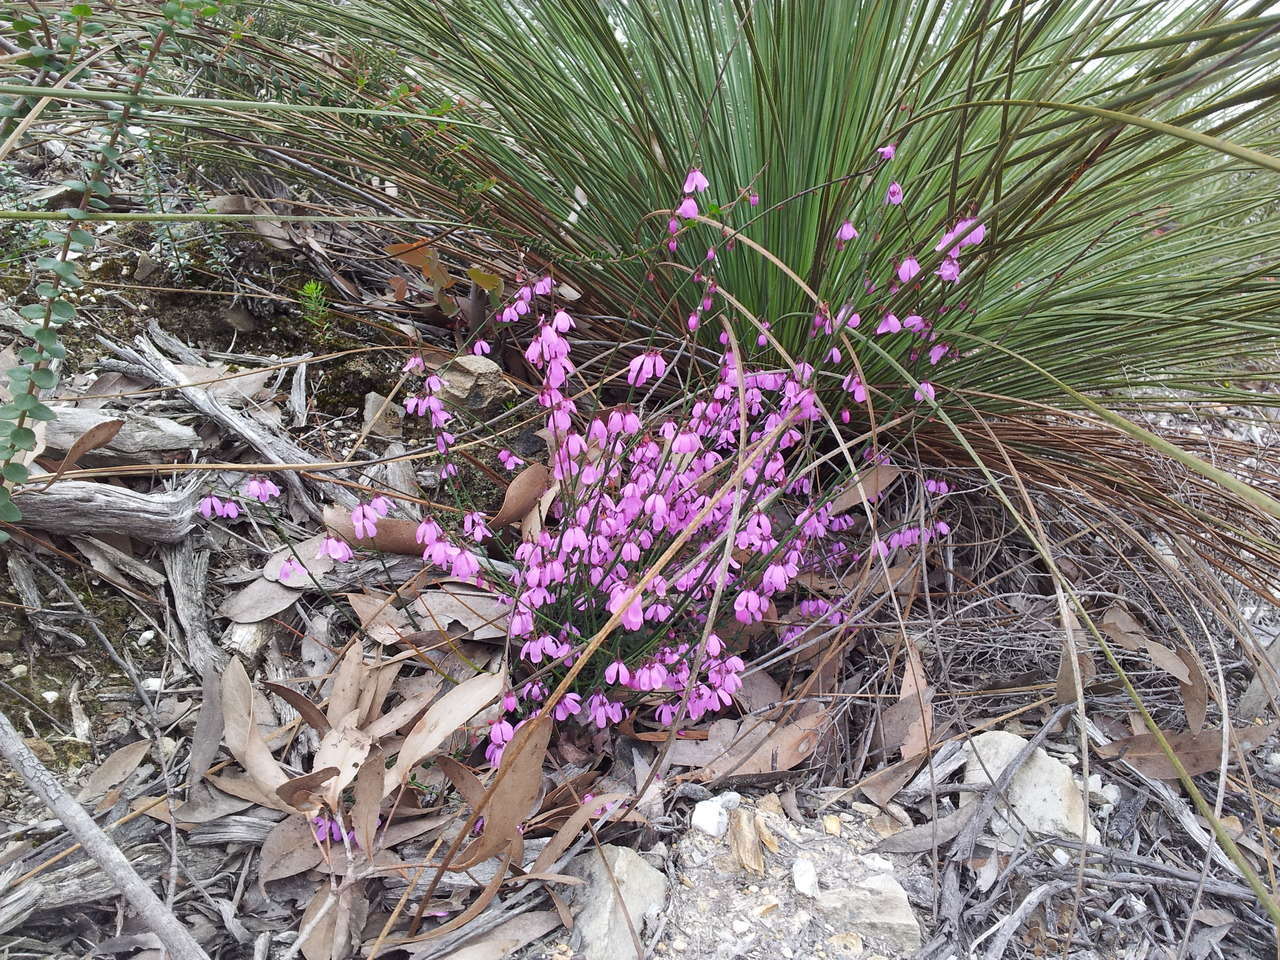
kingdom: Plantae
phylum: Tracheophyta
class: Liliopsida
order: Asparagales
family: Asphodelaceae
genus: Xanthorrhoea
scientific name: Xanthorrhoea australis
